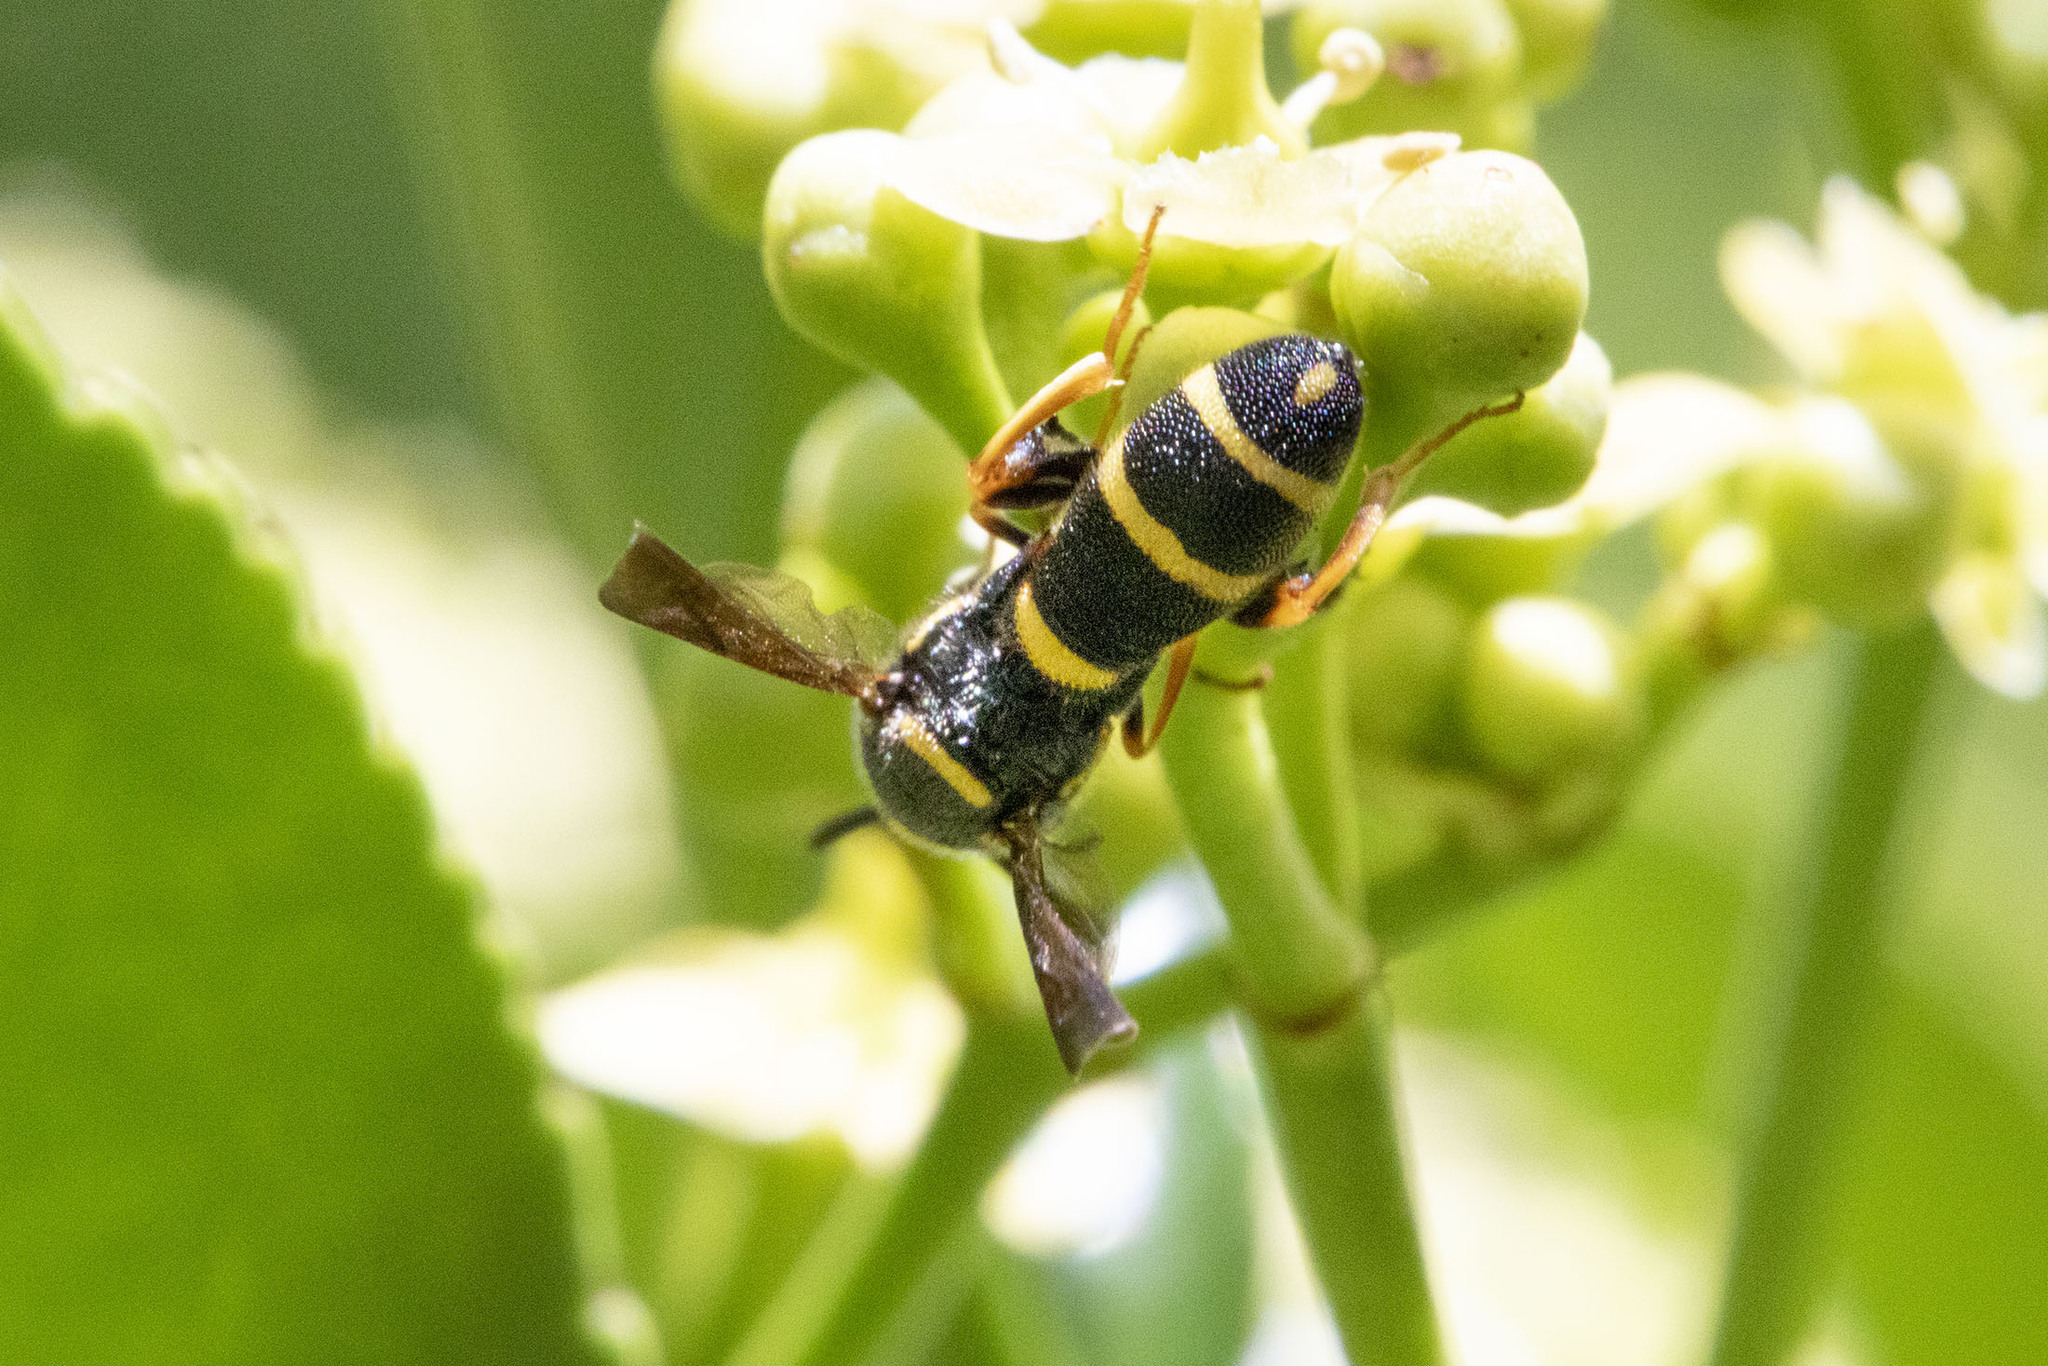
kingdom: Animalia
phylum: Arthropoda
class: Insecta
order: Hymenoptera
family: Leucospidae
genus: Leucospis
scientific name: Leucospis affinis
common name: Wasp
